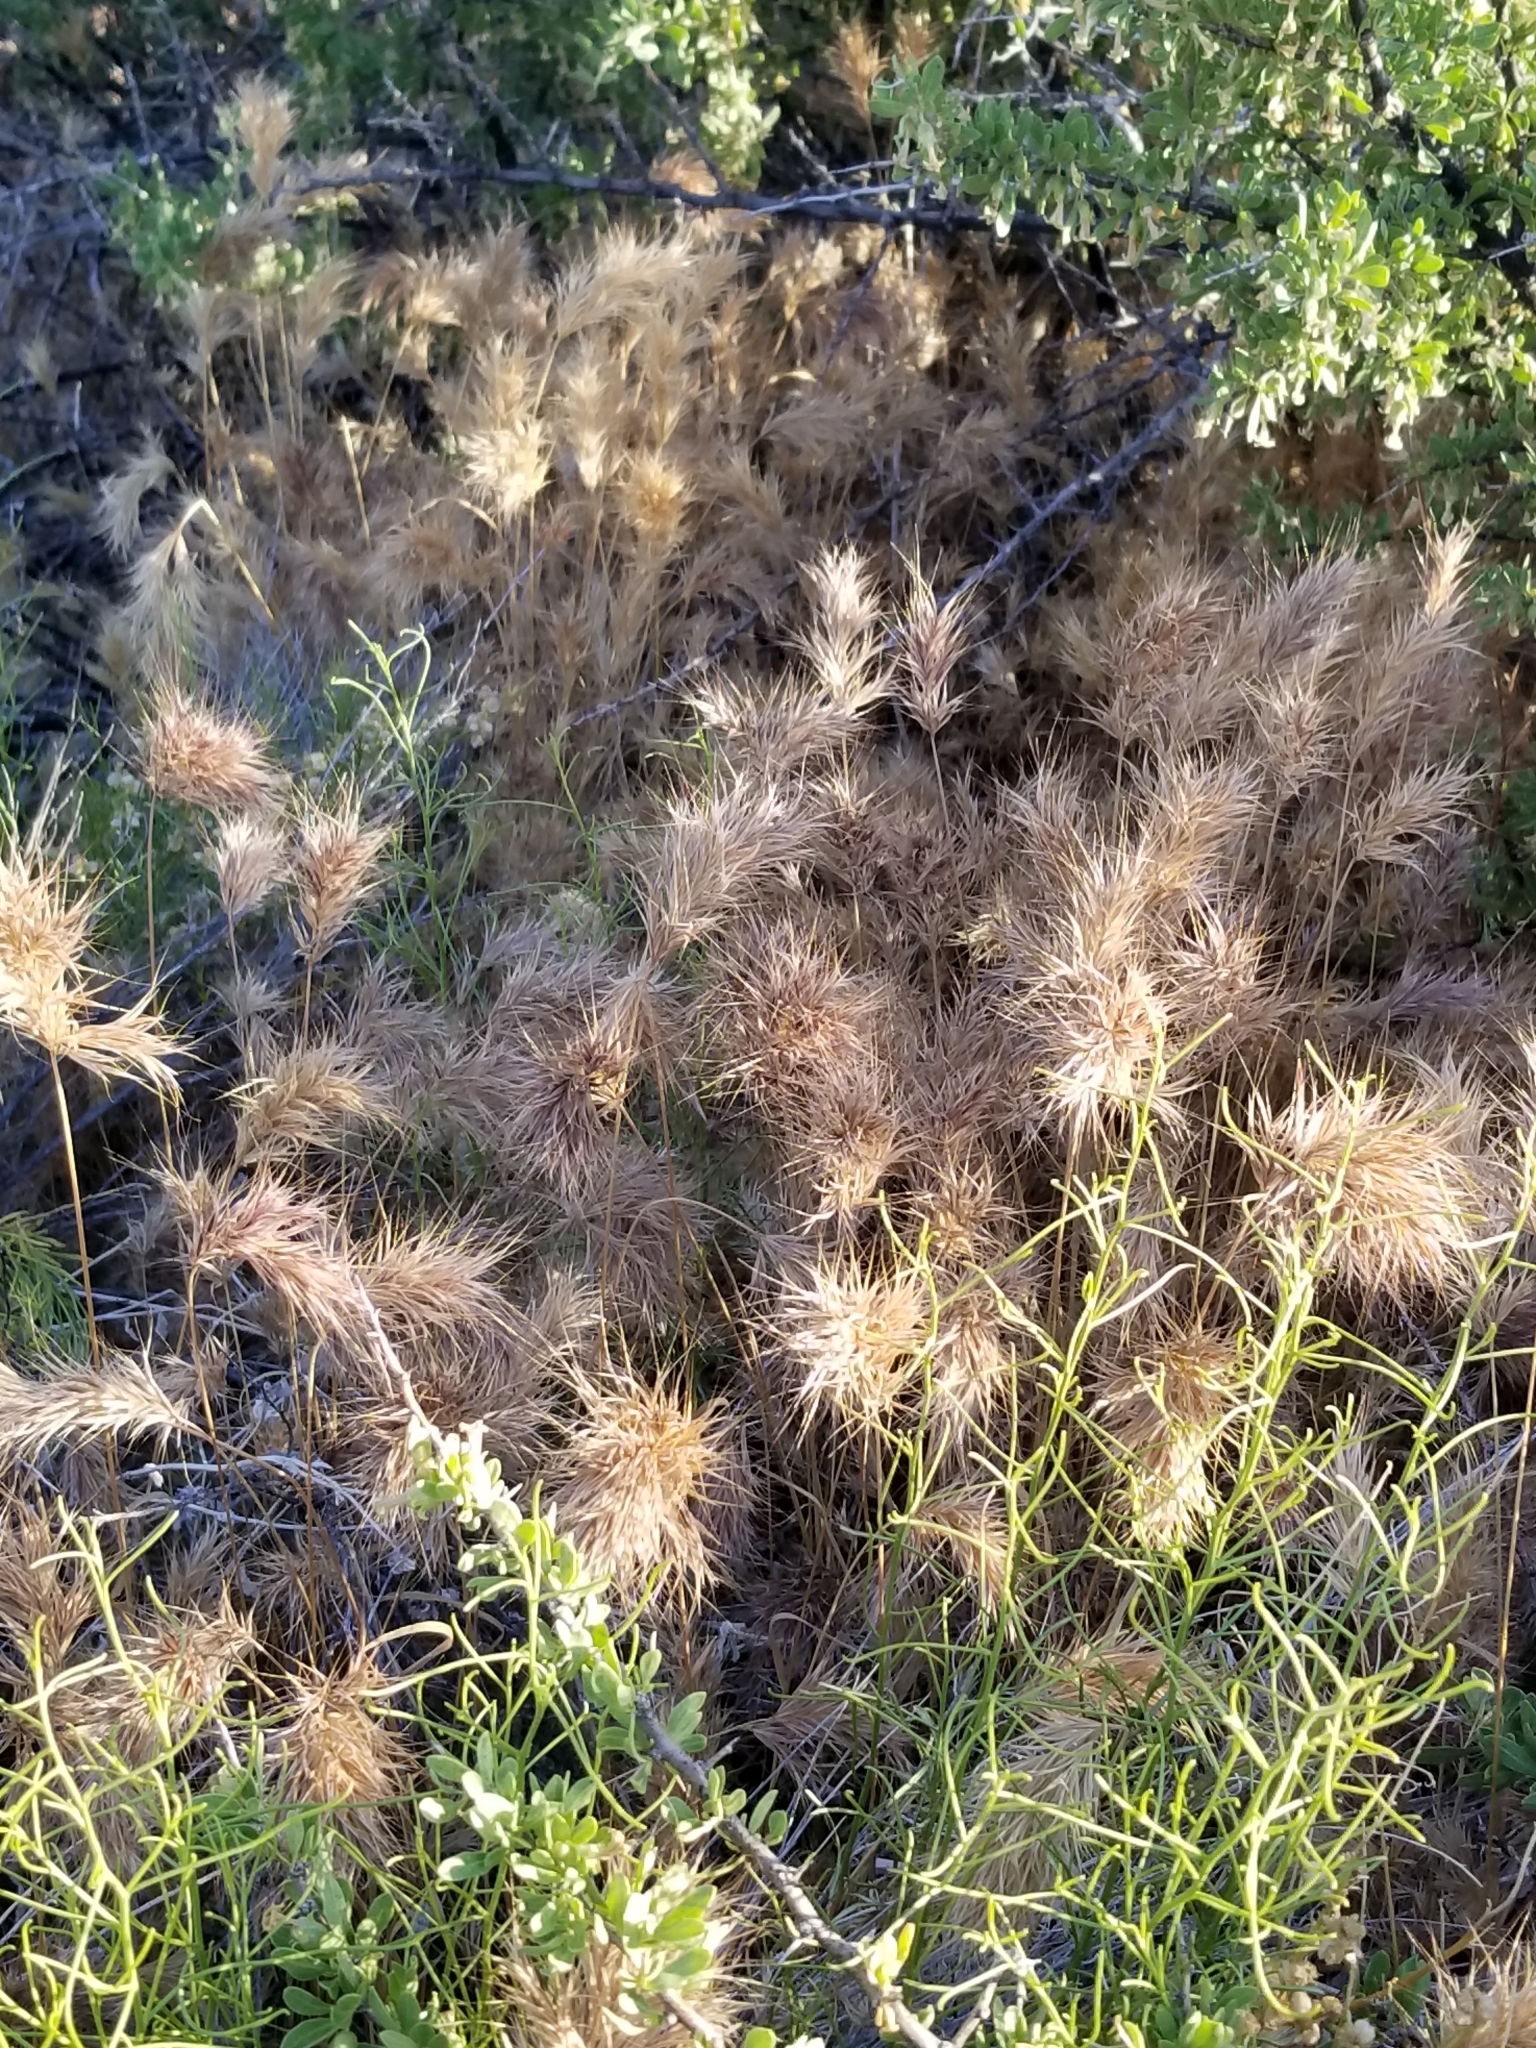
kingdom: Plantae
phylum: Tracheophyta
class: Liliopsida
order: Poales
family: Poaceae
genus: Bromus
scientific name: Bromus rubens
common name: Red brome
